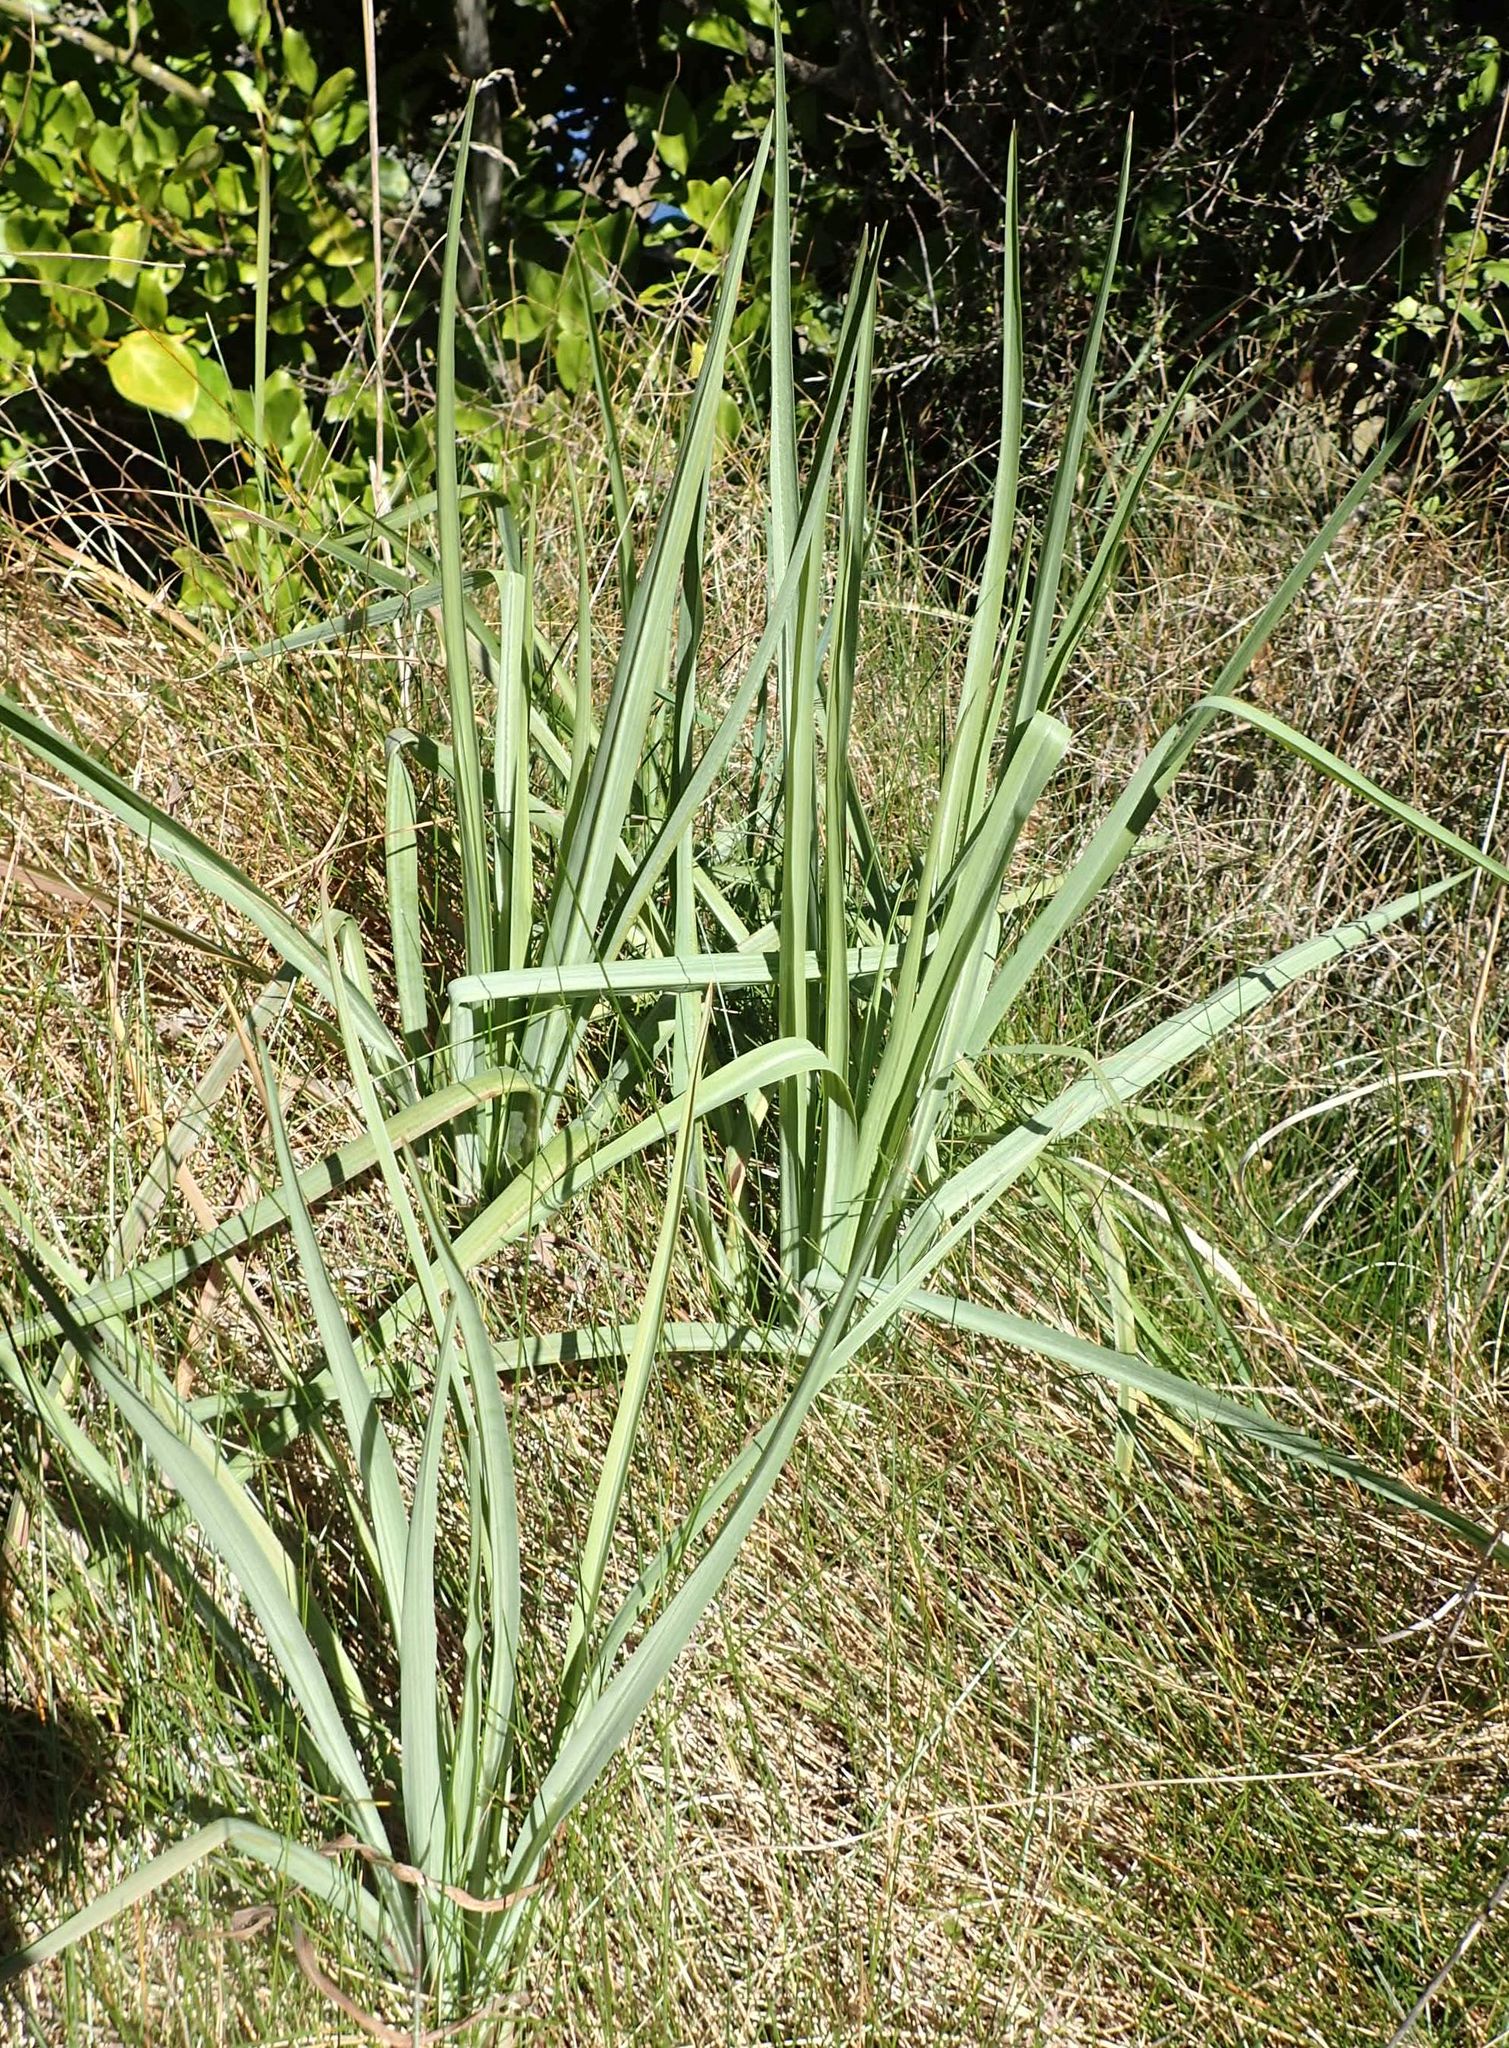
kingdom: Plantae
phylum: Tracheophyta
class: Magnoliopsida
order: Asterales
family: Asteraceae
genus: Tragopogon
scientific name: Tragopogon porrifolius
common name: Salsify
